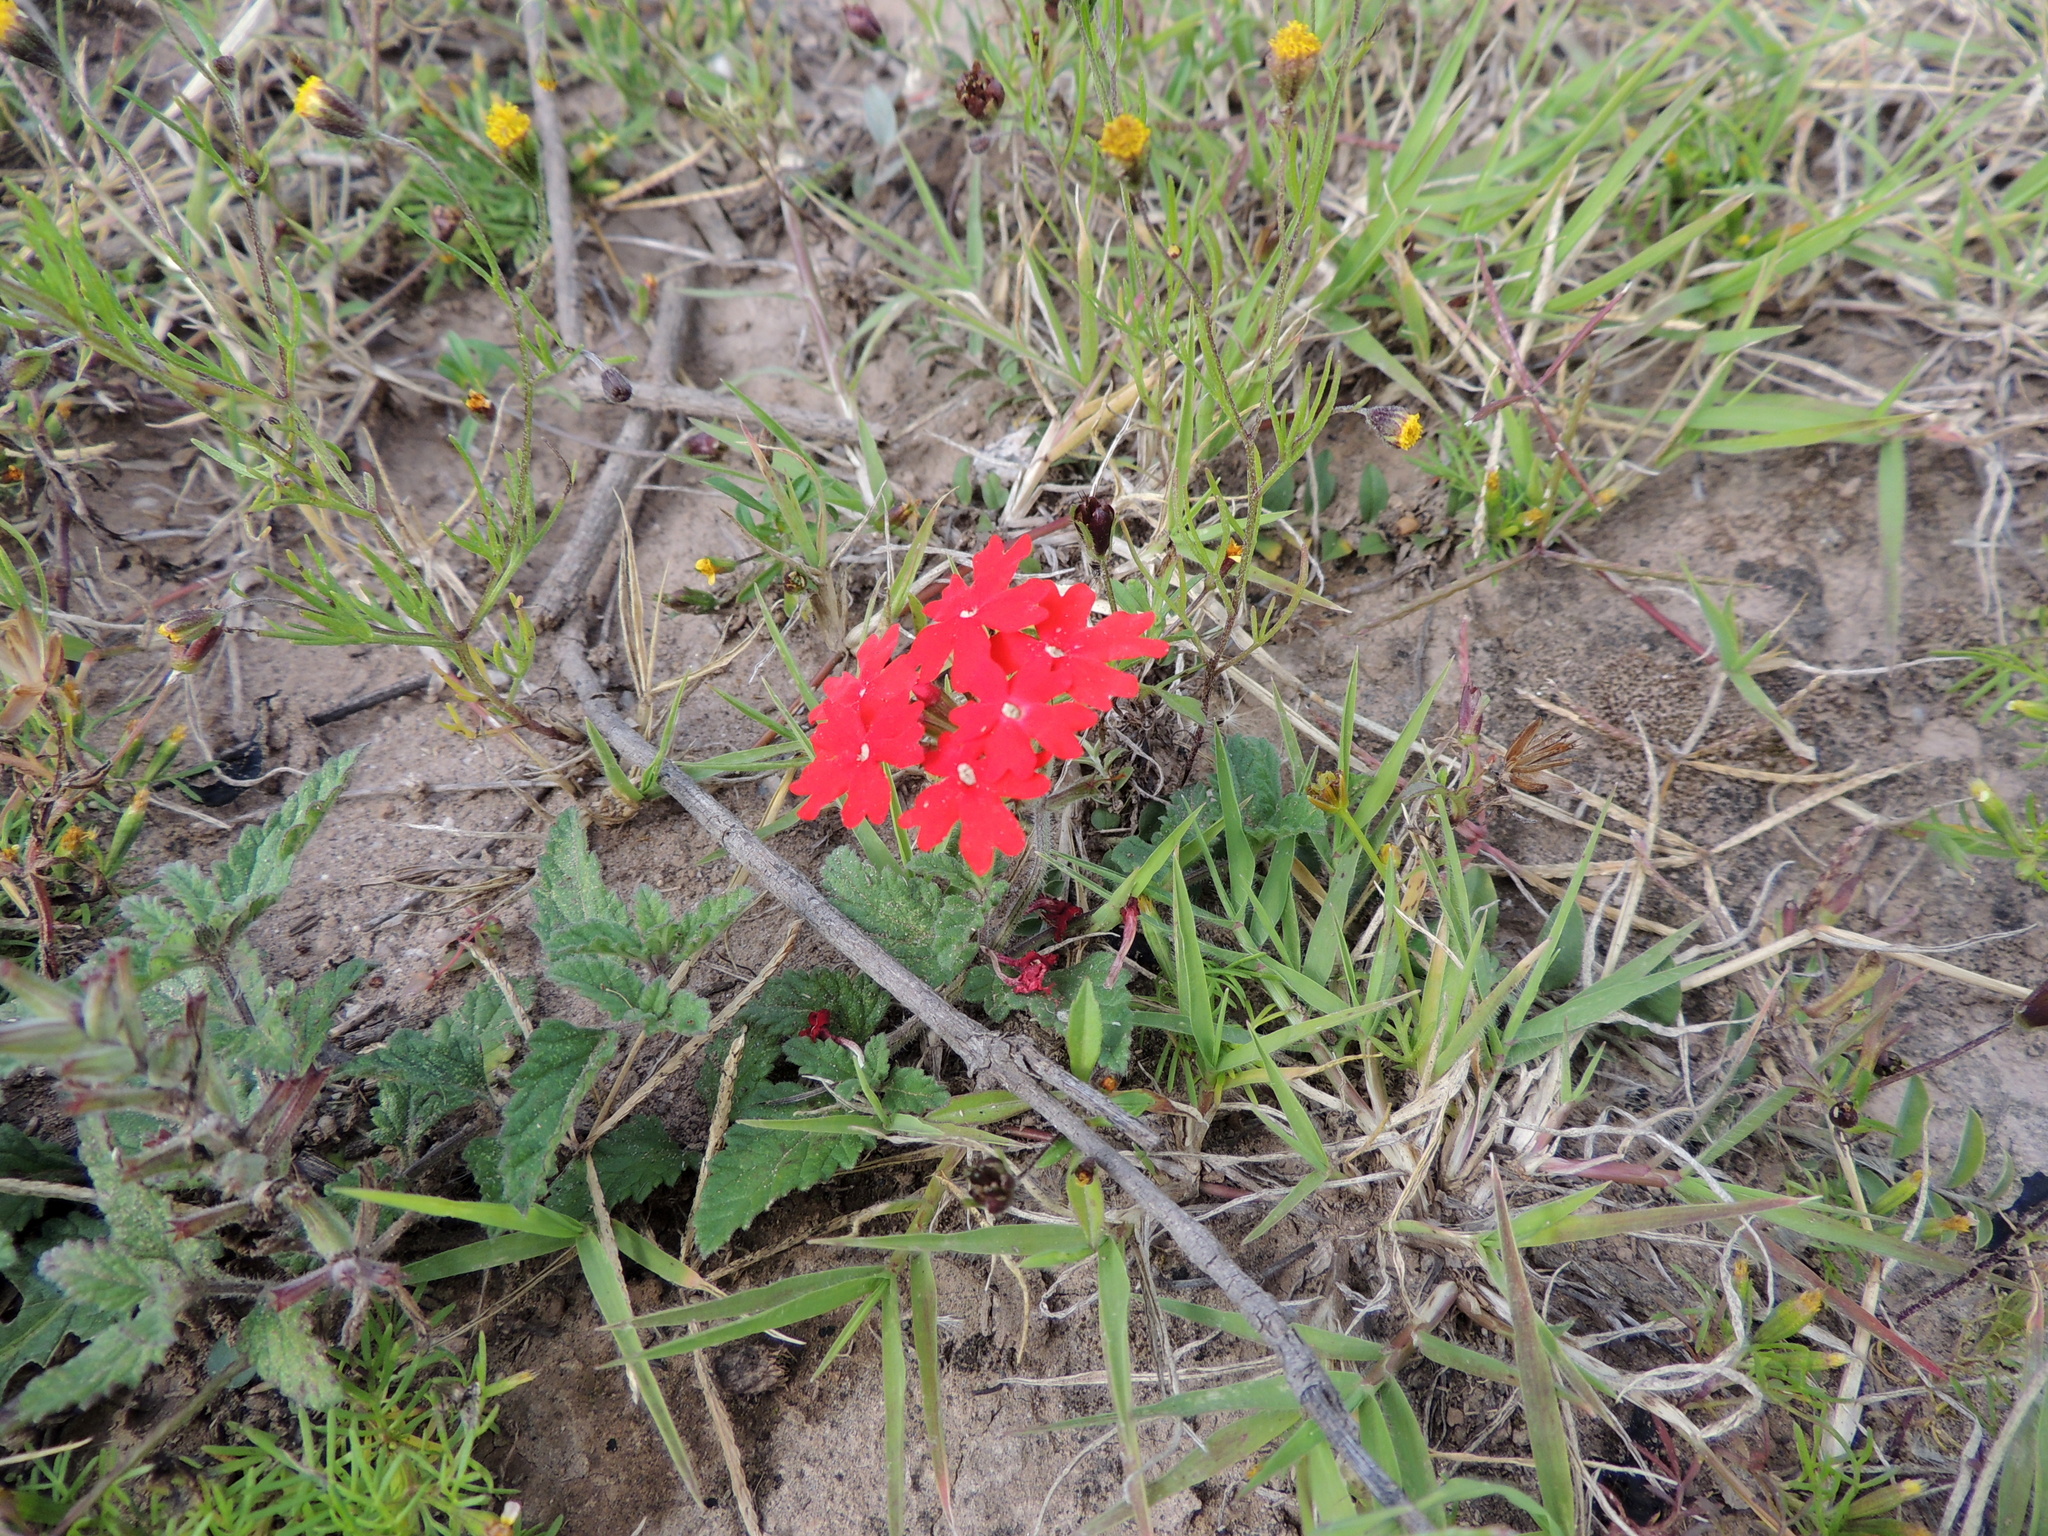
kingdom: Plantae
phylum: Tracheophyta
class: Magnoliopsida
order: Lamiales
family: Verbenaceae
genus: Verbena
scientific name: Verbena peruviana
